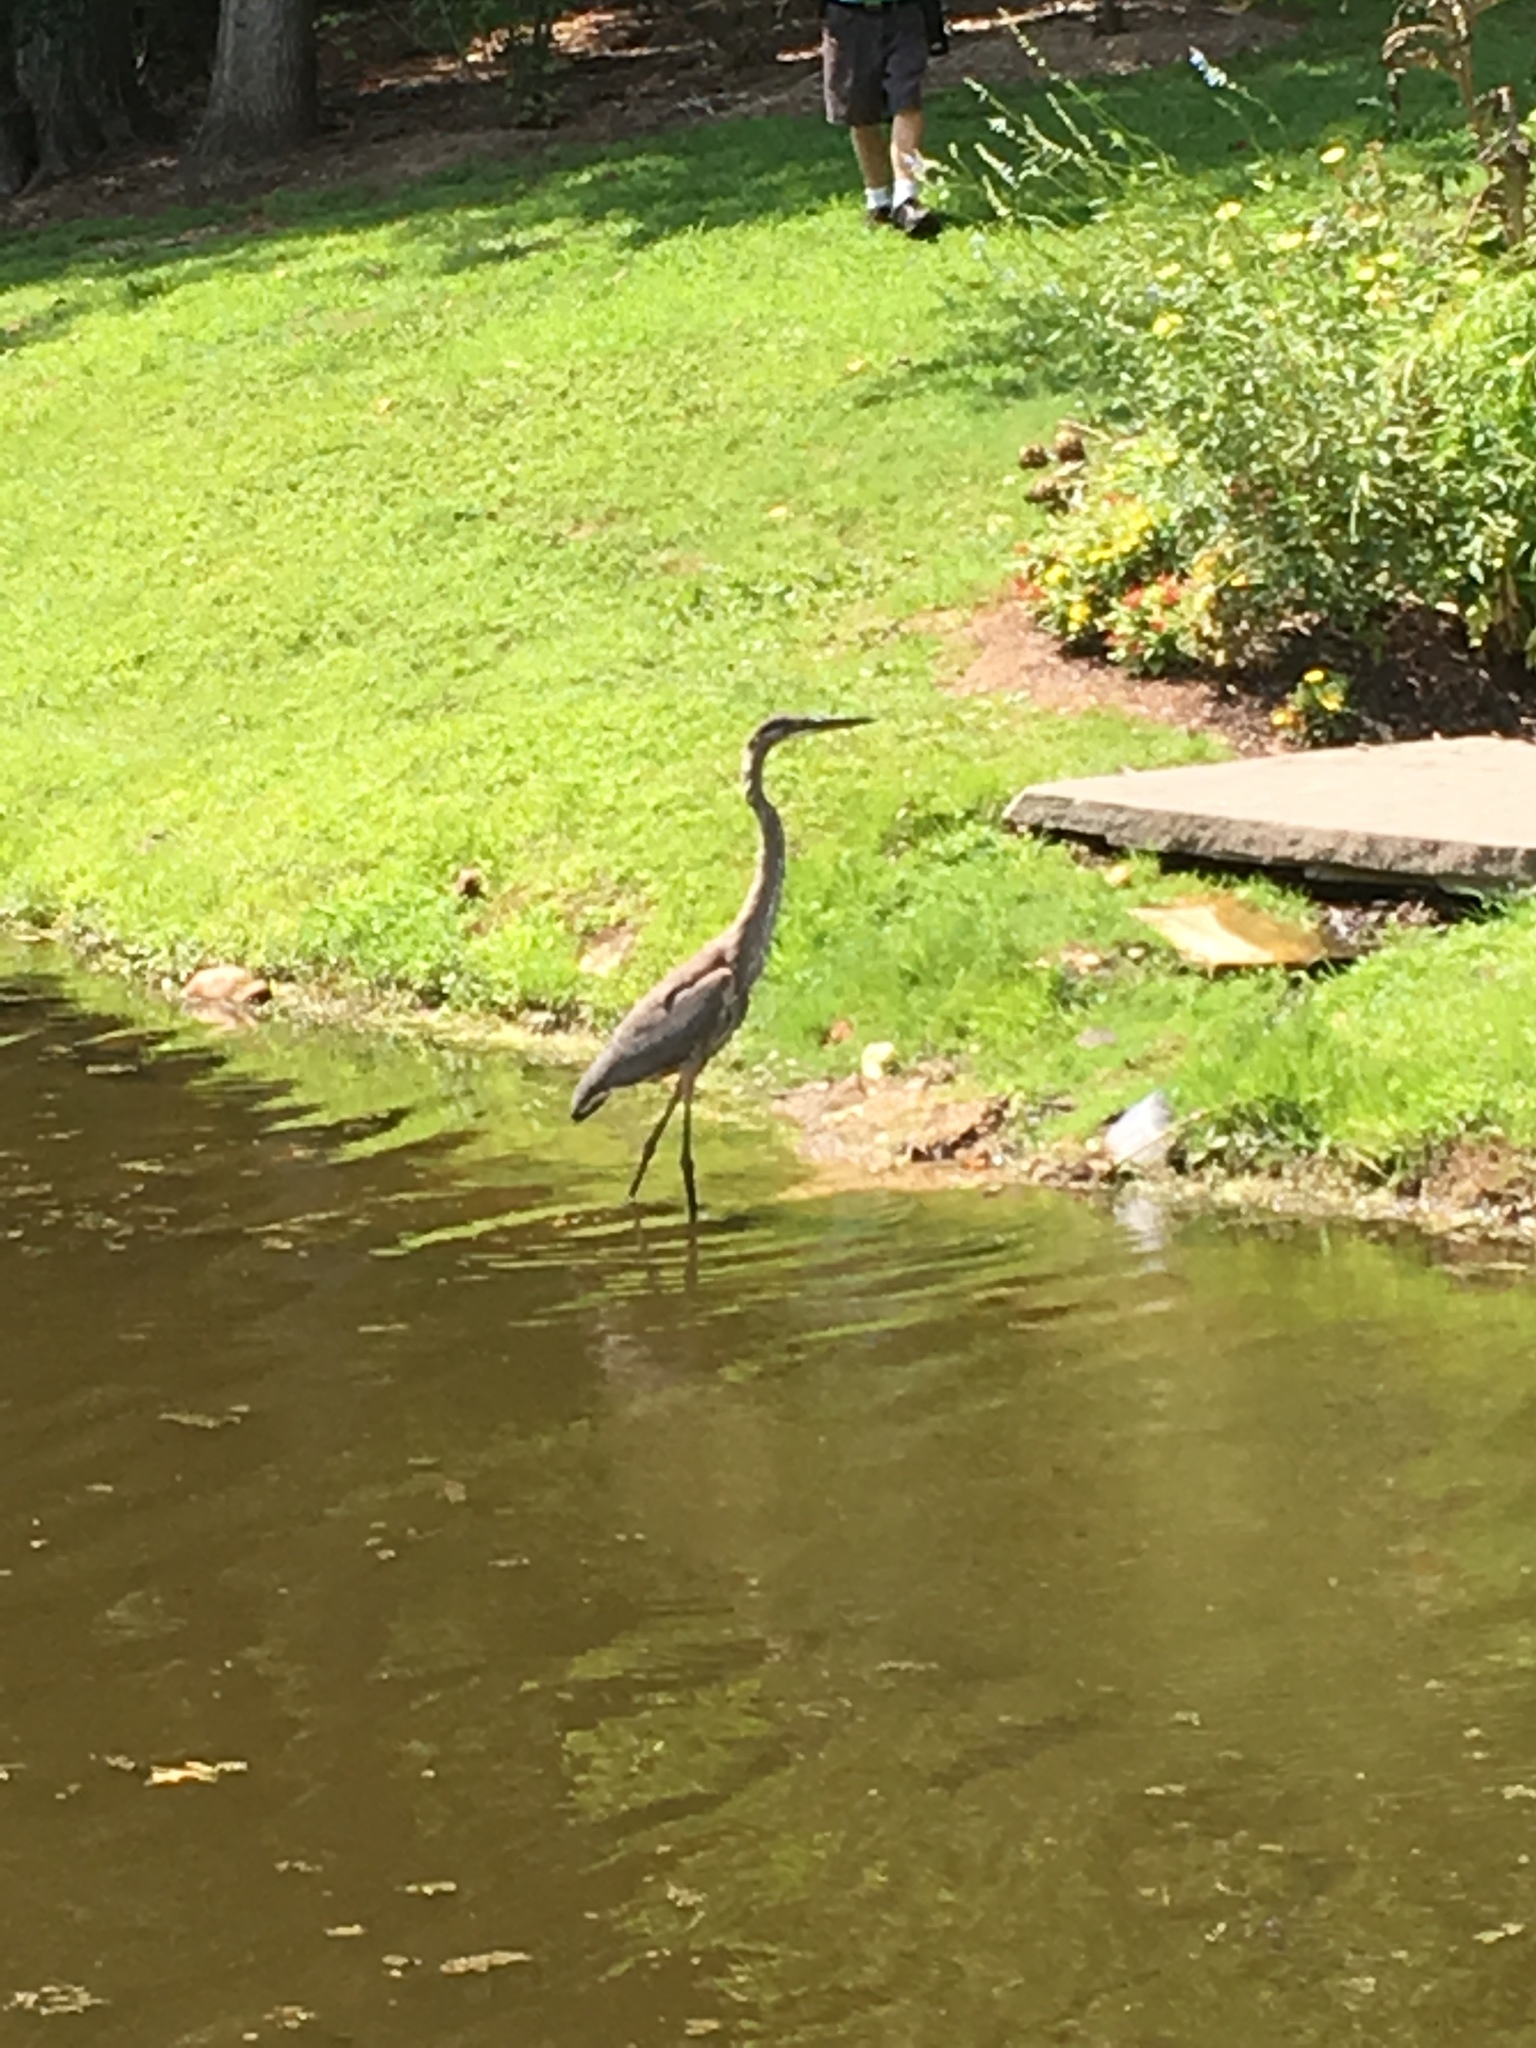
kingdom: Animalia
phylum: Chordata
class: Aves
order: Pelecaniformes
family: Ardeidae
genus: Ardea
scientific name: Ardea herodias
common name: Great blue heron
